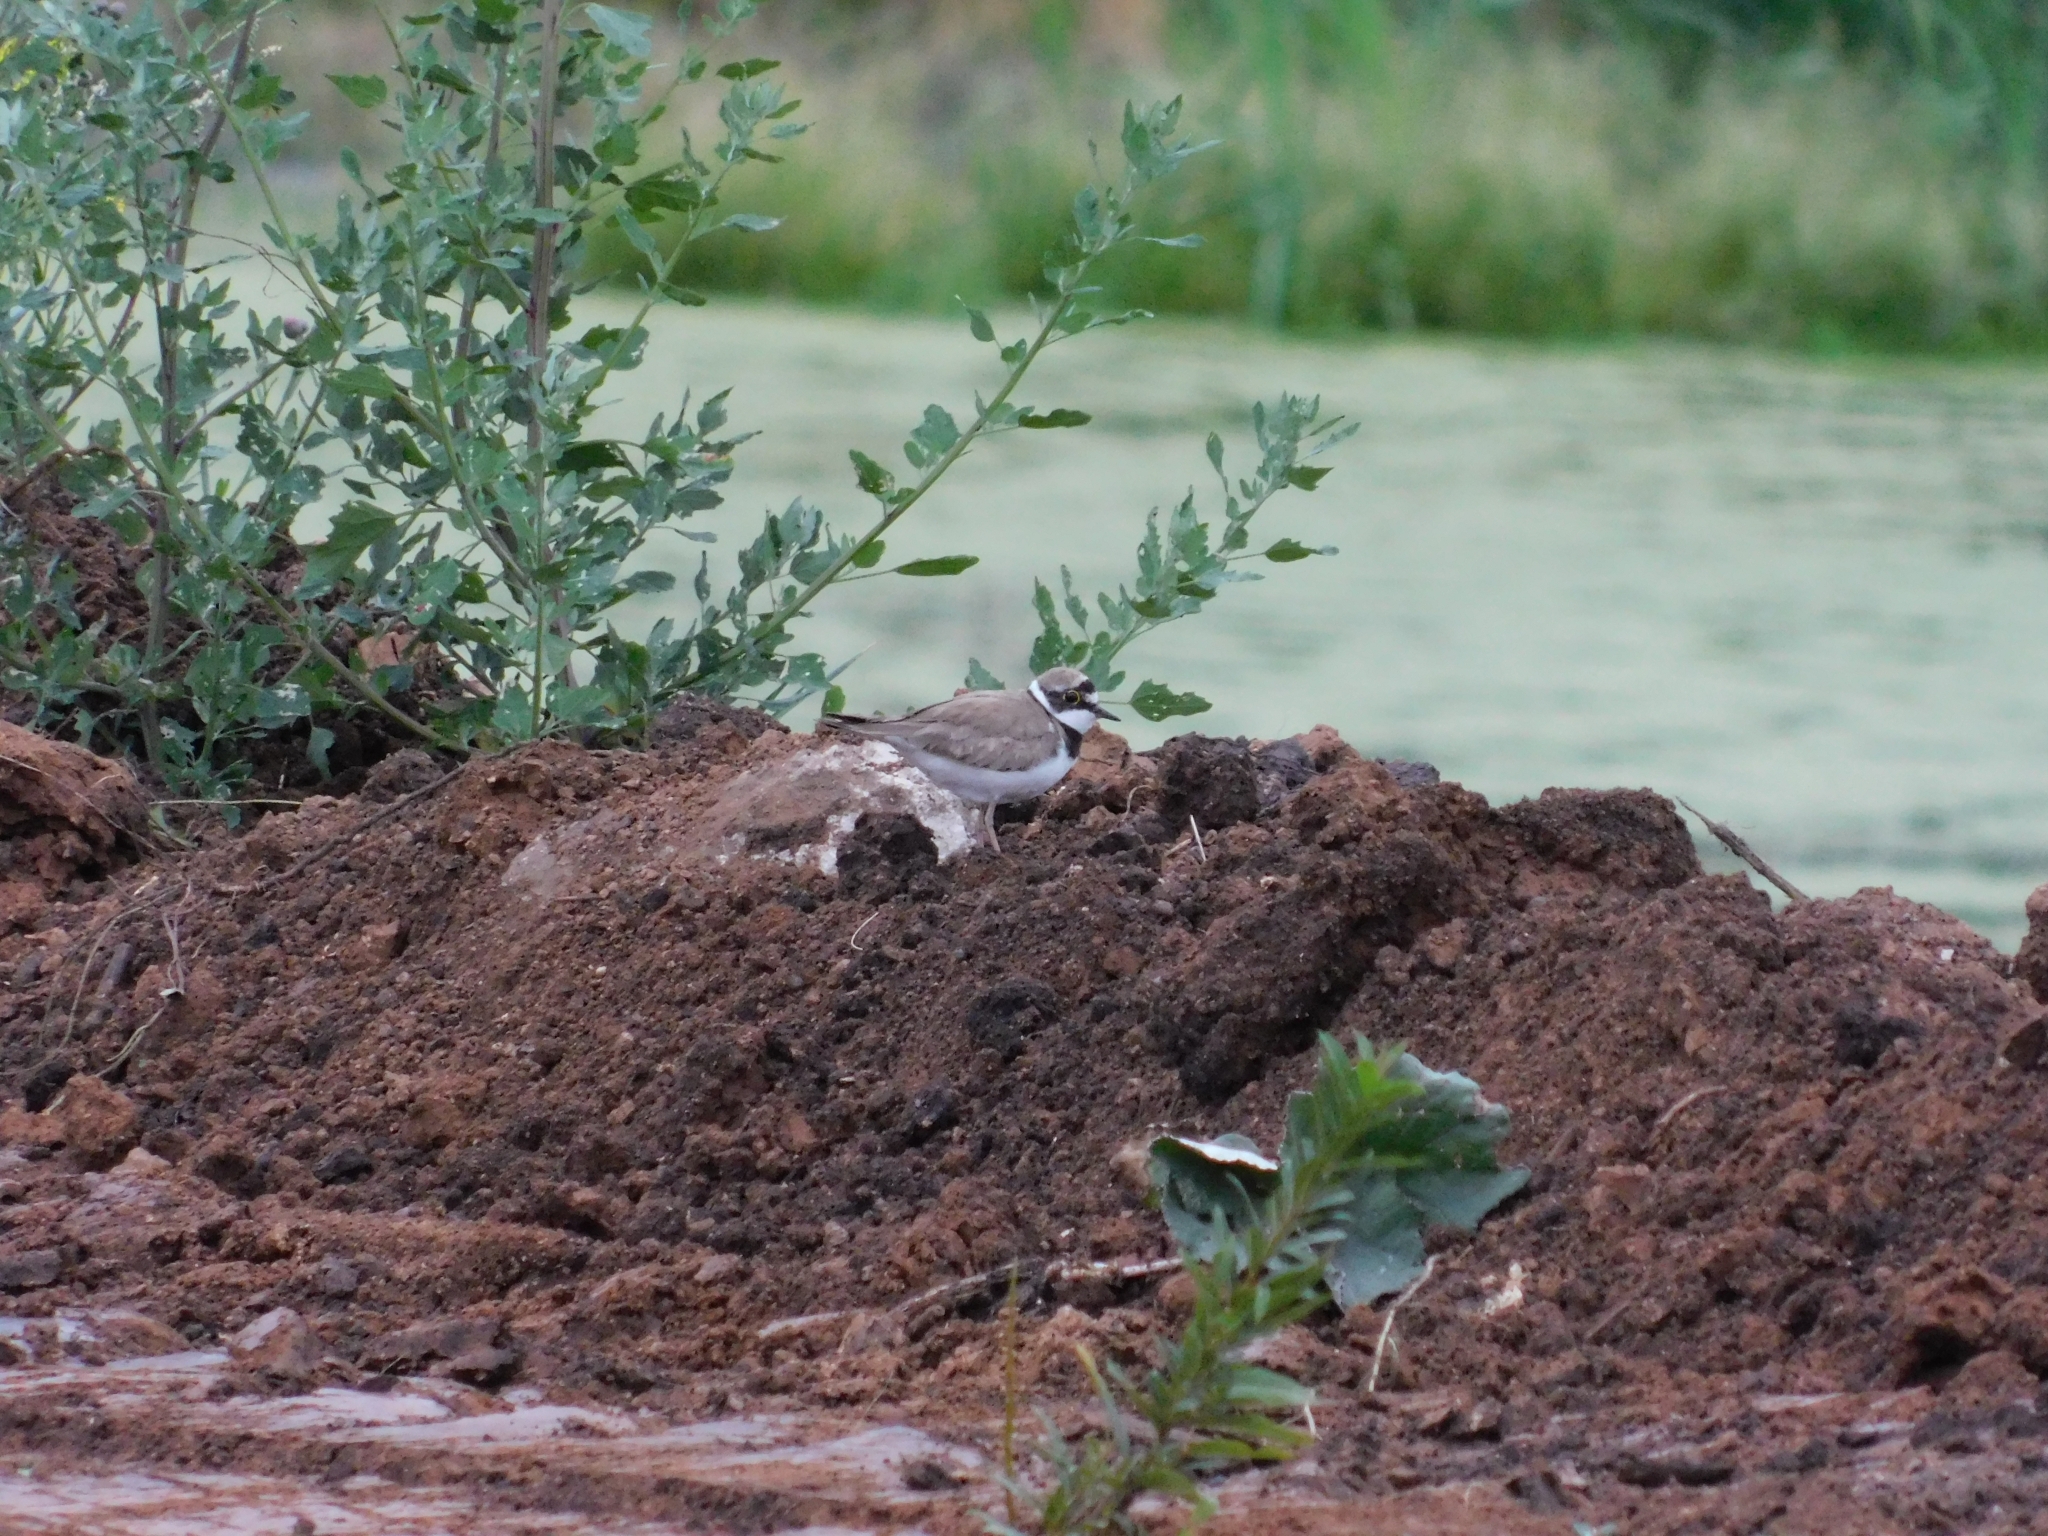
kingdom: Animalia
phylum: Chordata
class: Aves
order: Charadriiformes
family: Charadriidae
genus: Charadrius
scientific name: Charadrius dubius
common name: Little ringed plover
